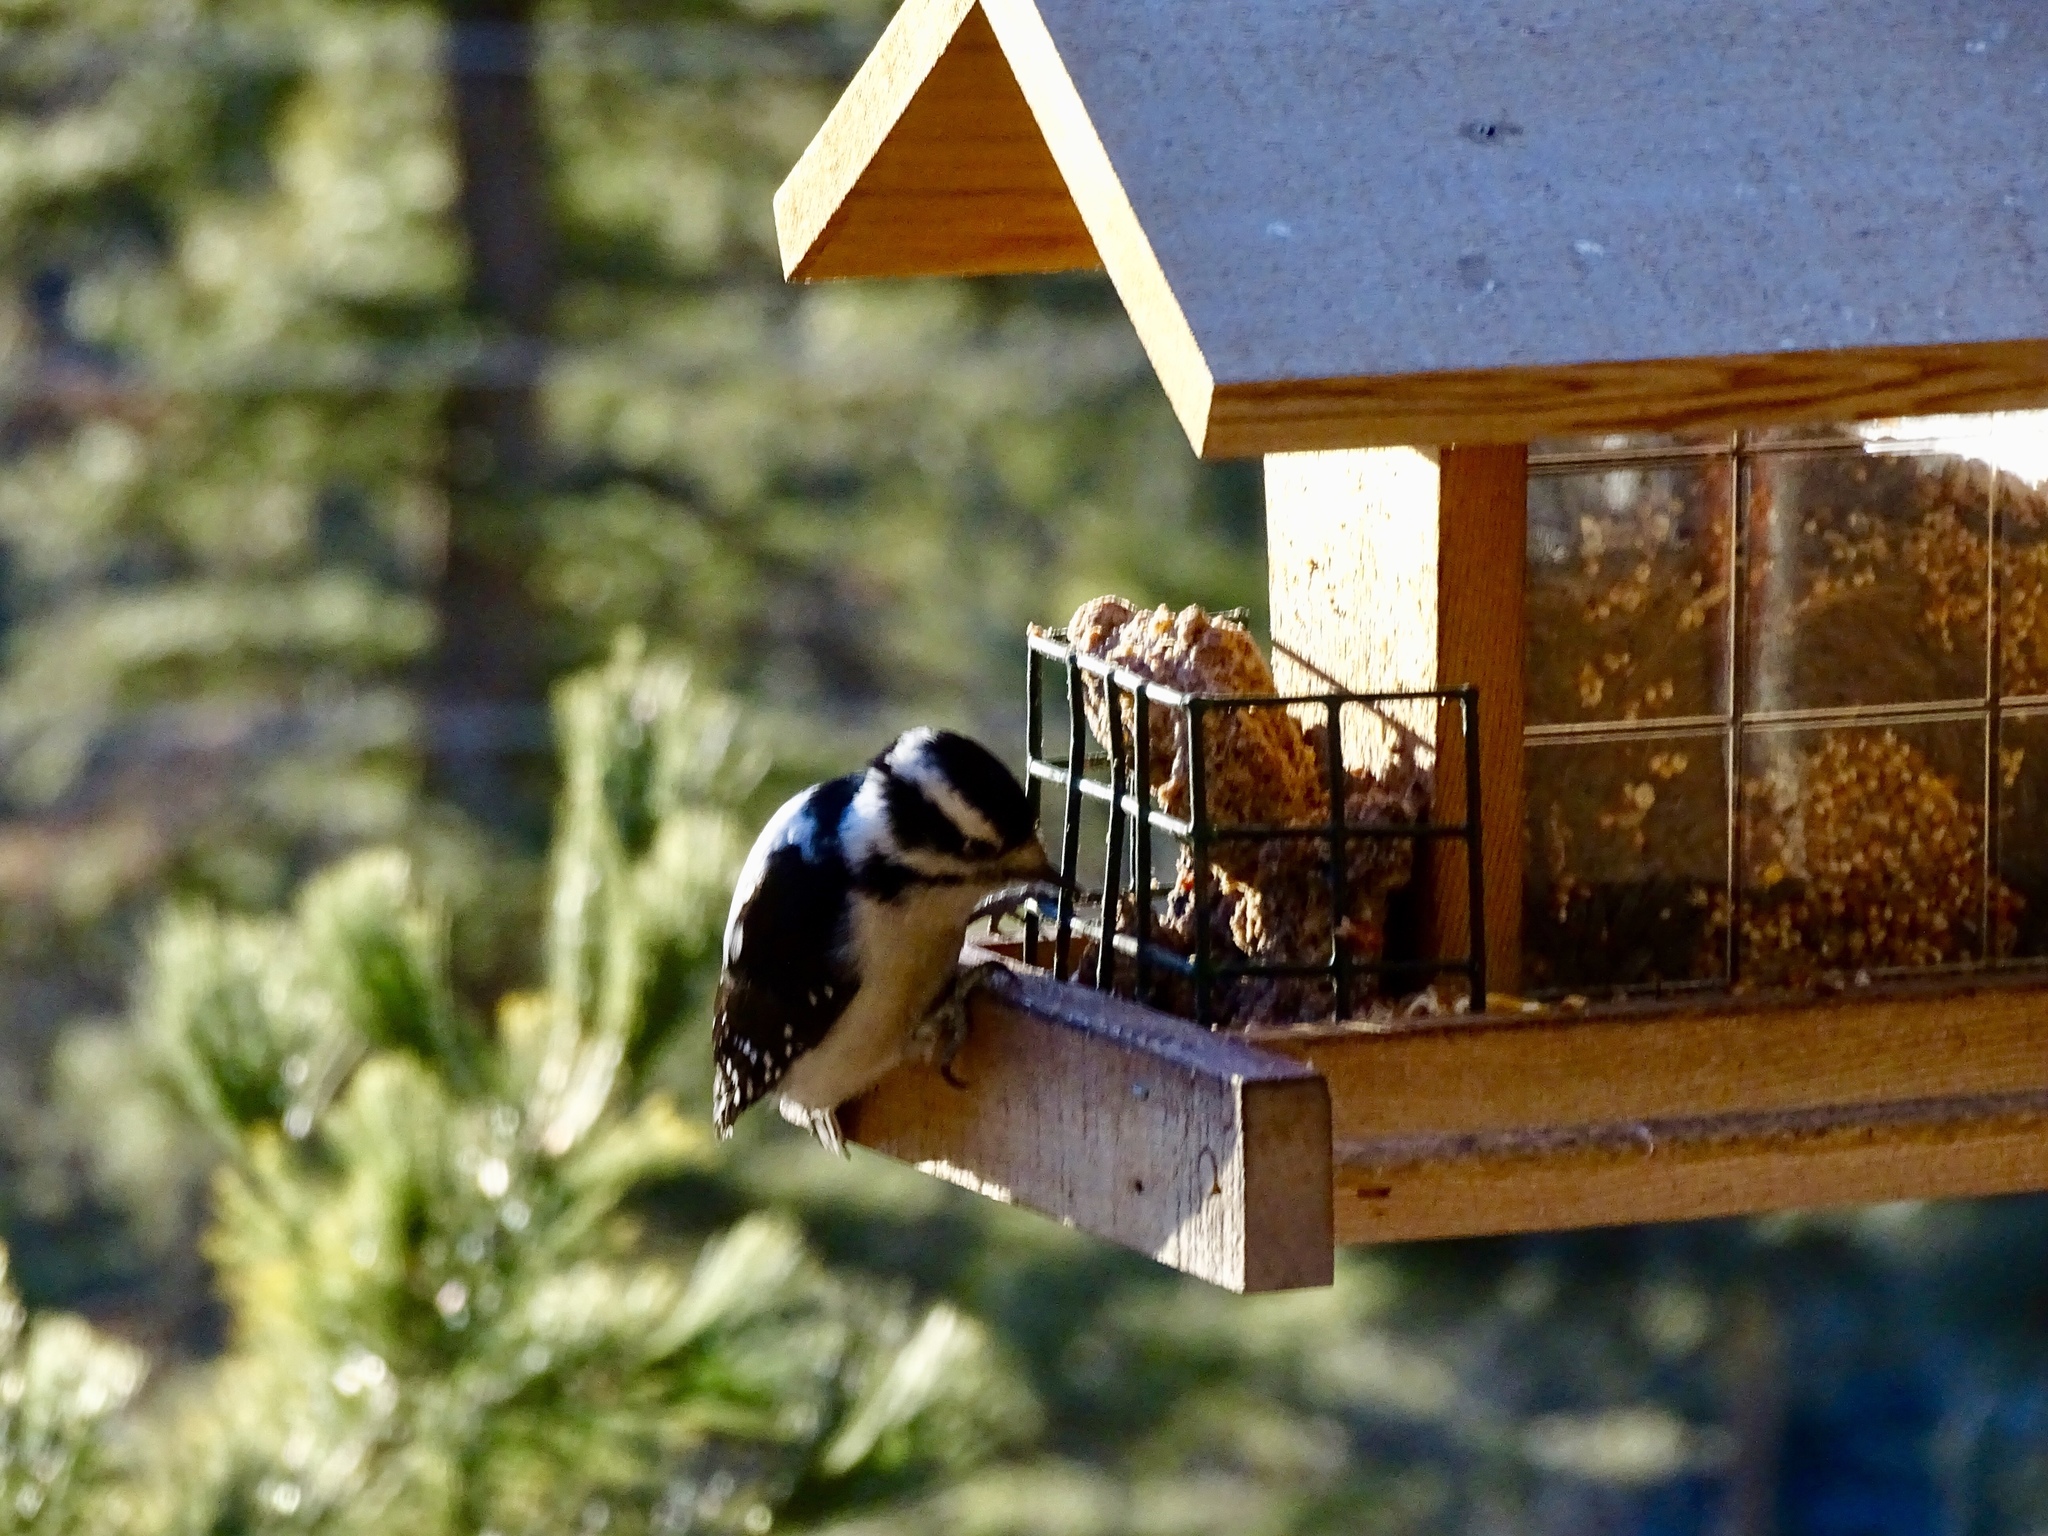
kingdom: Animalia
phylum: Chordata
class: Aves
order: Piciformes
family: Picidae
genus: Dryobates
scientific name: Dryobates pubescens
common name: Downy woodpecker
